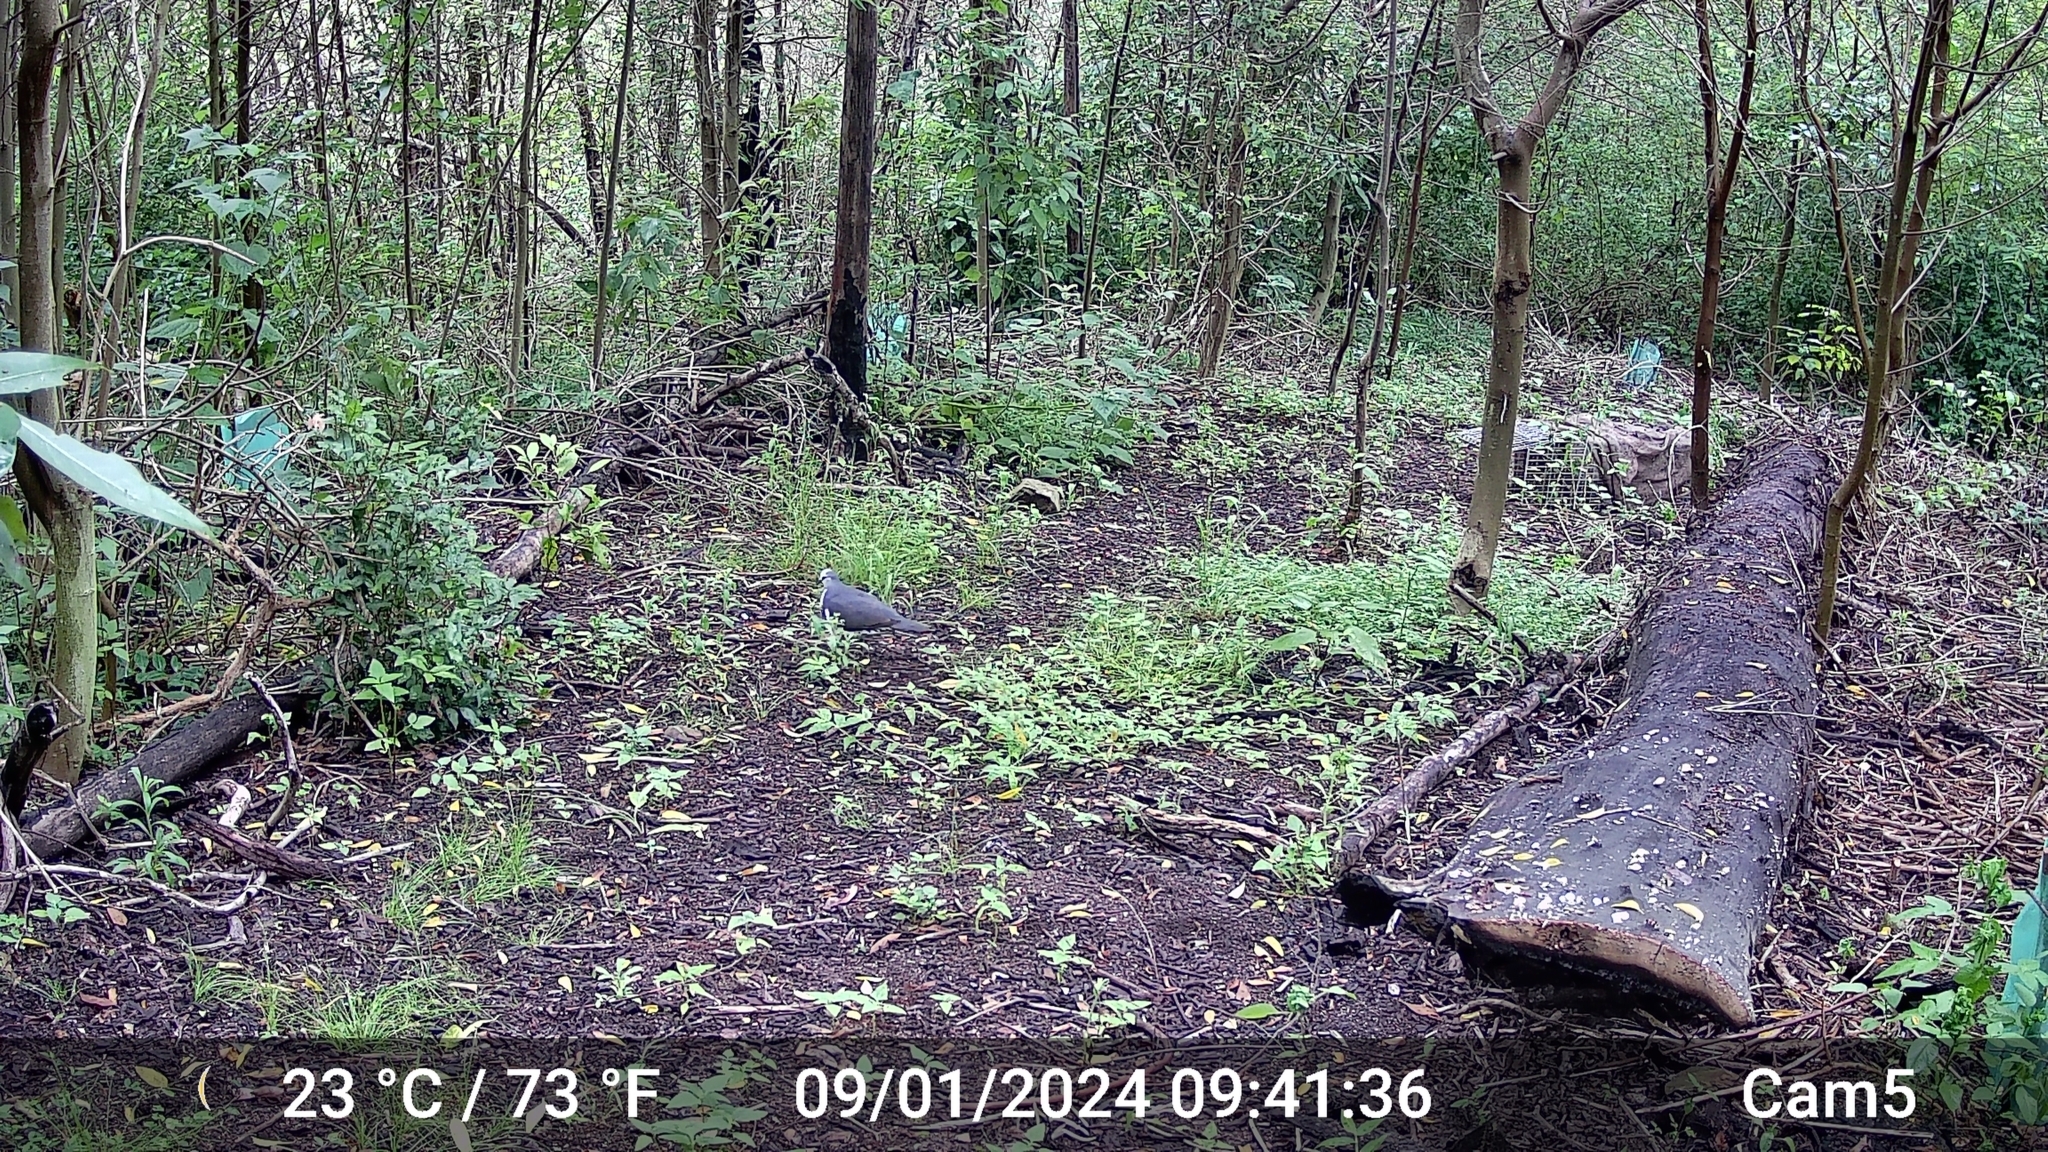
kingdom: Animalia
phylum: Chordata
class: Aves
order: Columbiformes
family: Columbidae
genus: Leucosarcia
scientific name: Leucosarcia melanoleuca
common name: Wonga pigeon
